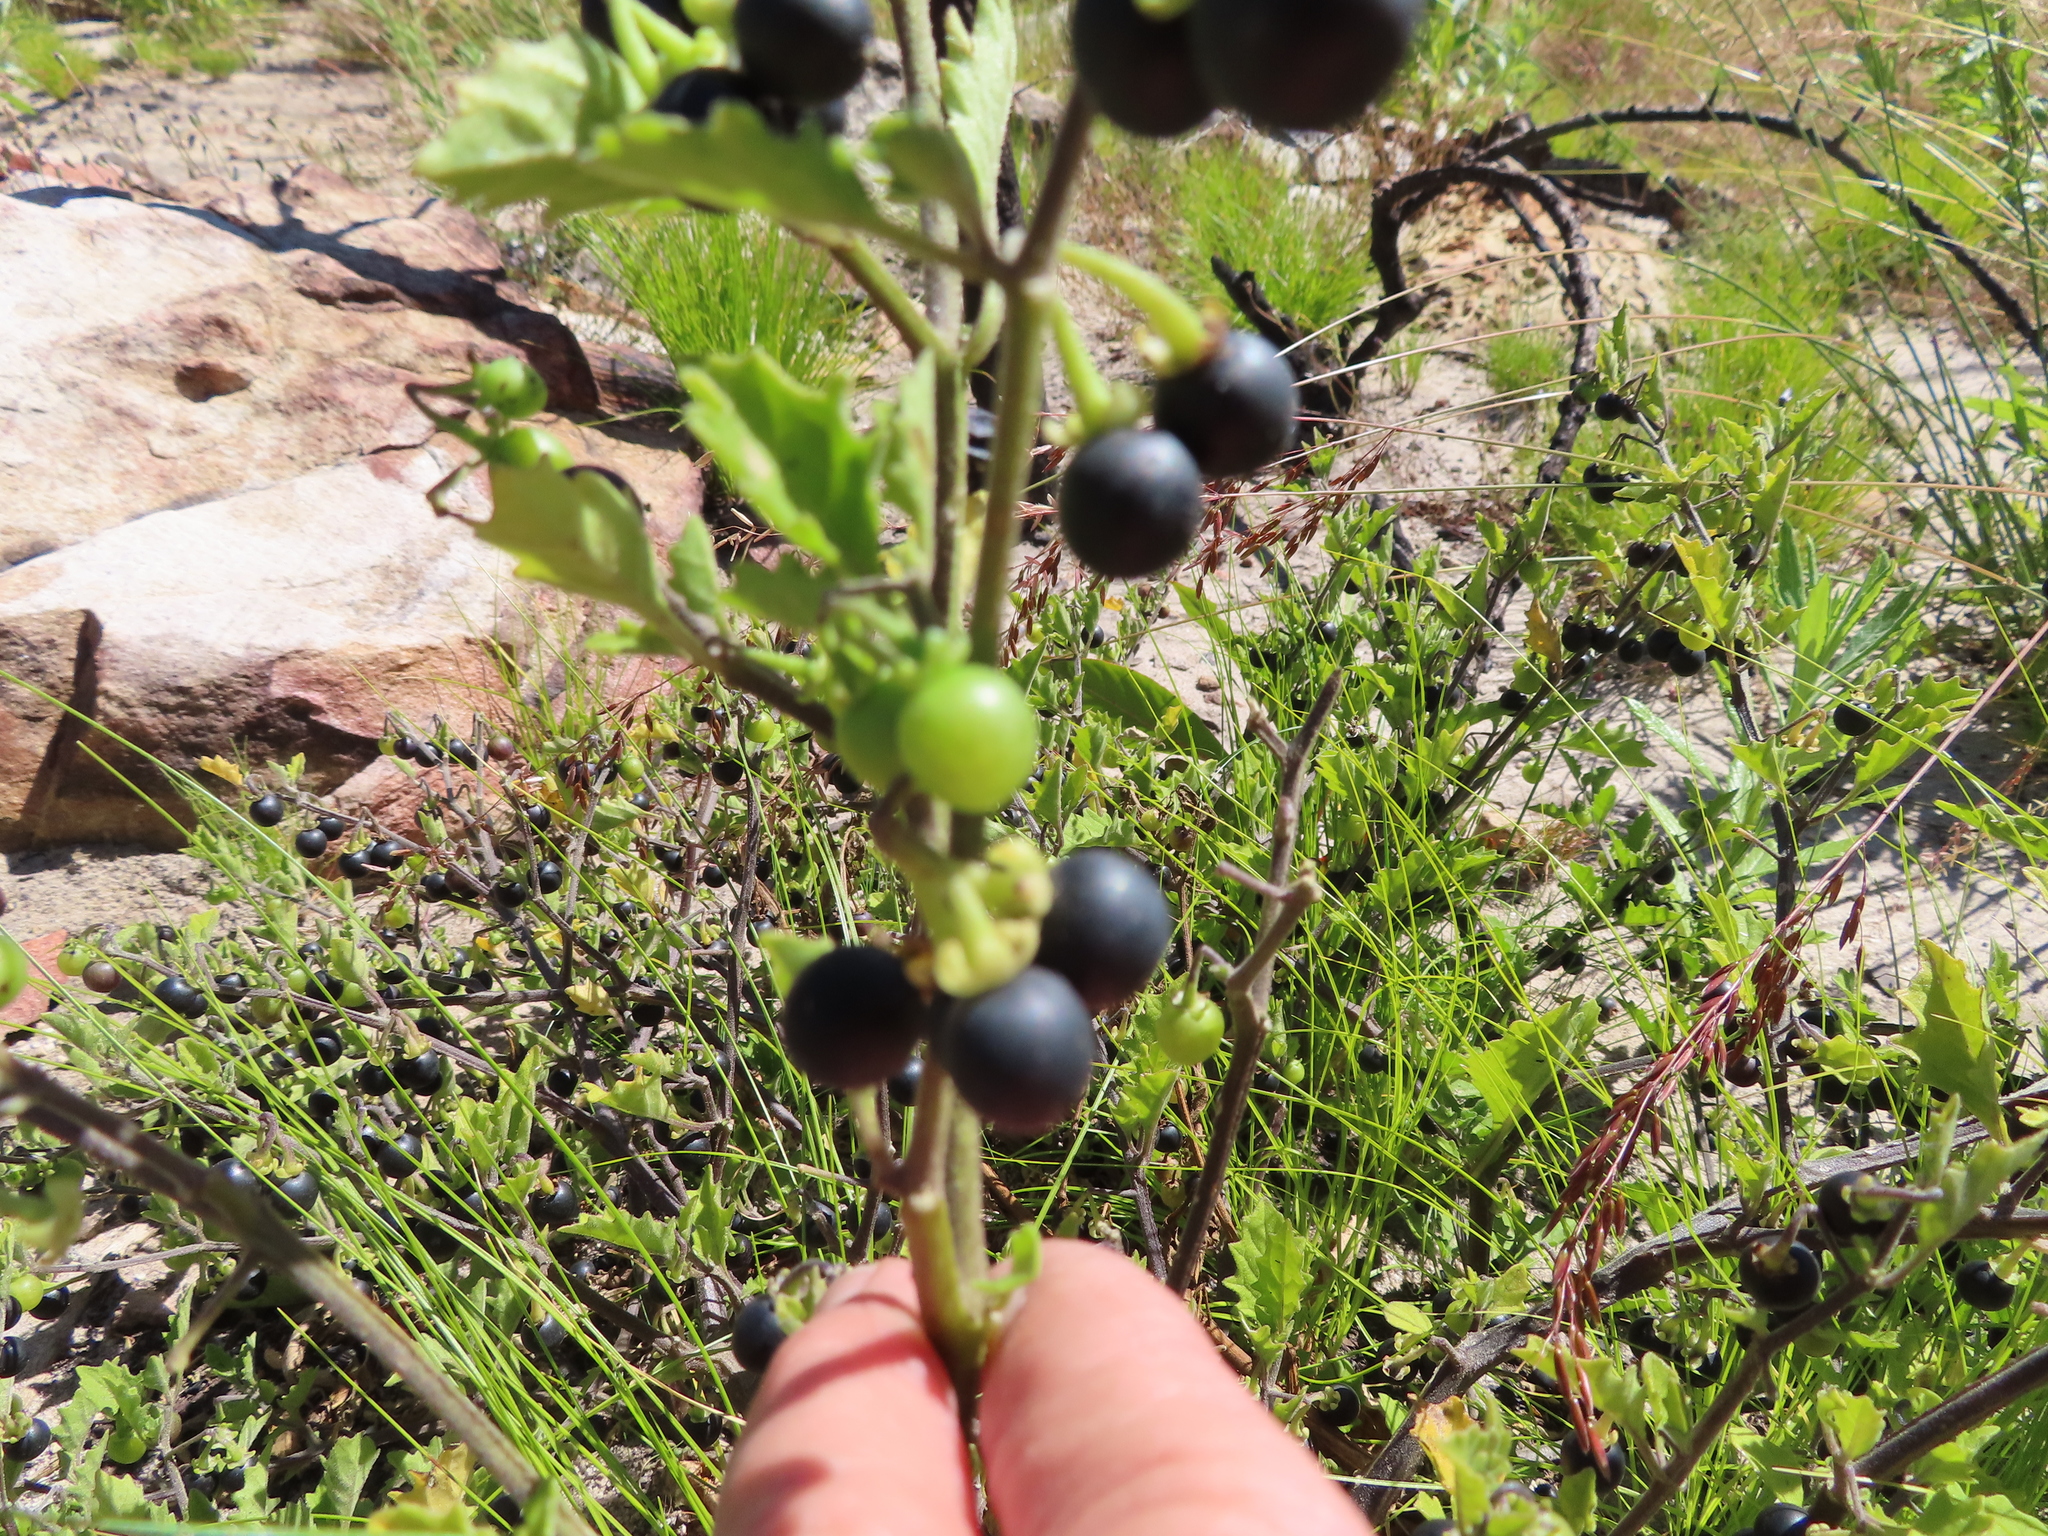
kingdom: Plantae
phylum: Tracheophyta
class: Magnoliopsida
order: Solanales
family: Solanaceae
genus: Solanum
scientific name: Solanum retroflexum
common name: Wonderberry
